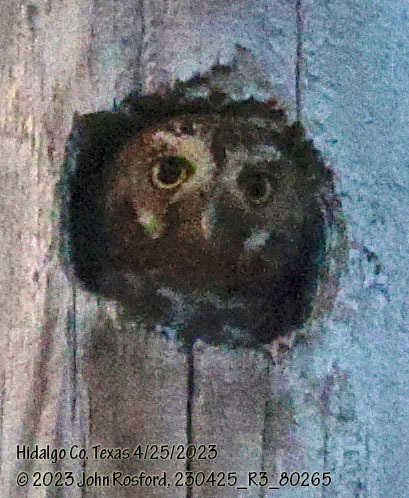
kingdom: Animalia
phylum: Chordata
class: Aves
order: Strigiformes
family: Strigidae
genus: Micrathene
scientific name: Micrathene whitneyi
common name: Elf owl
